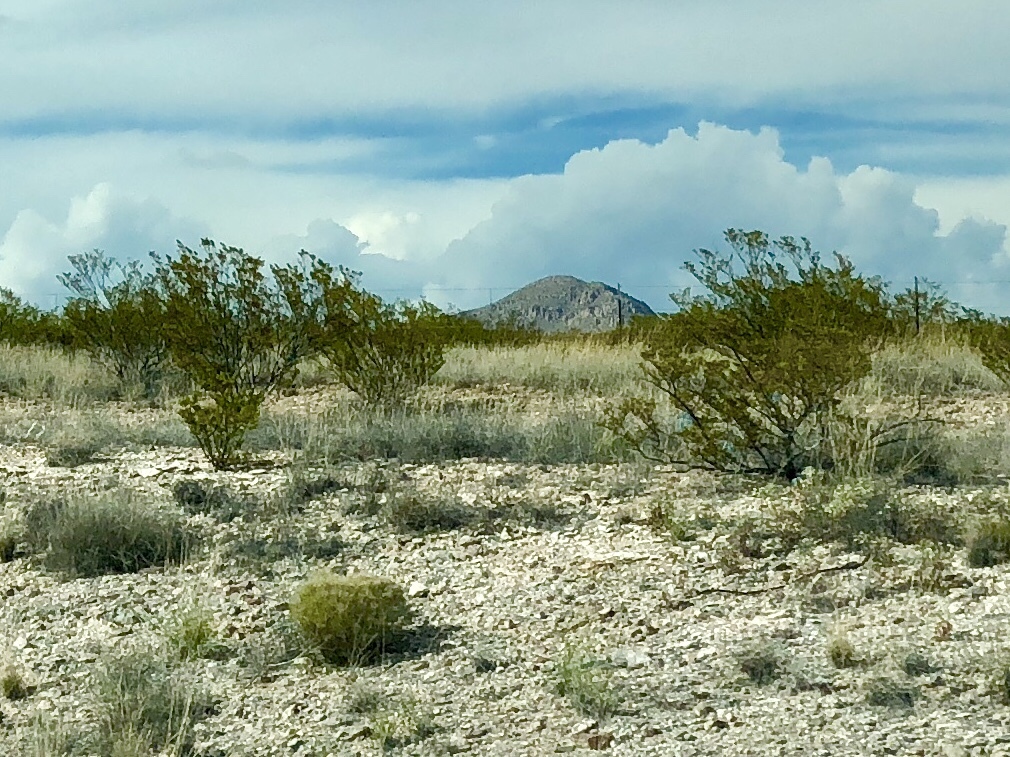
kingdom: Plantae
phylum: Tracheophyta
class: Magnoliopsida
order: Zygophyllales
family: Zygophyllaceae
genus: Larrea
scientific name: Larrea tridentata
